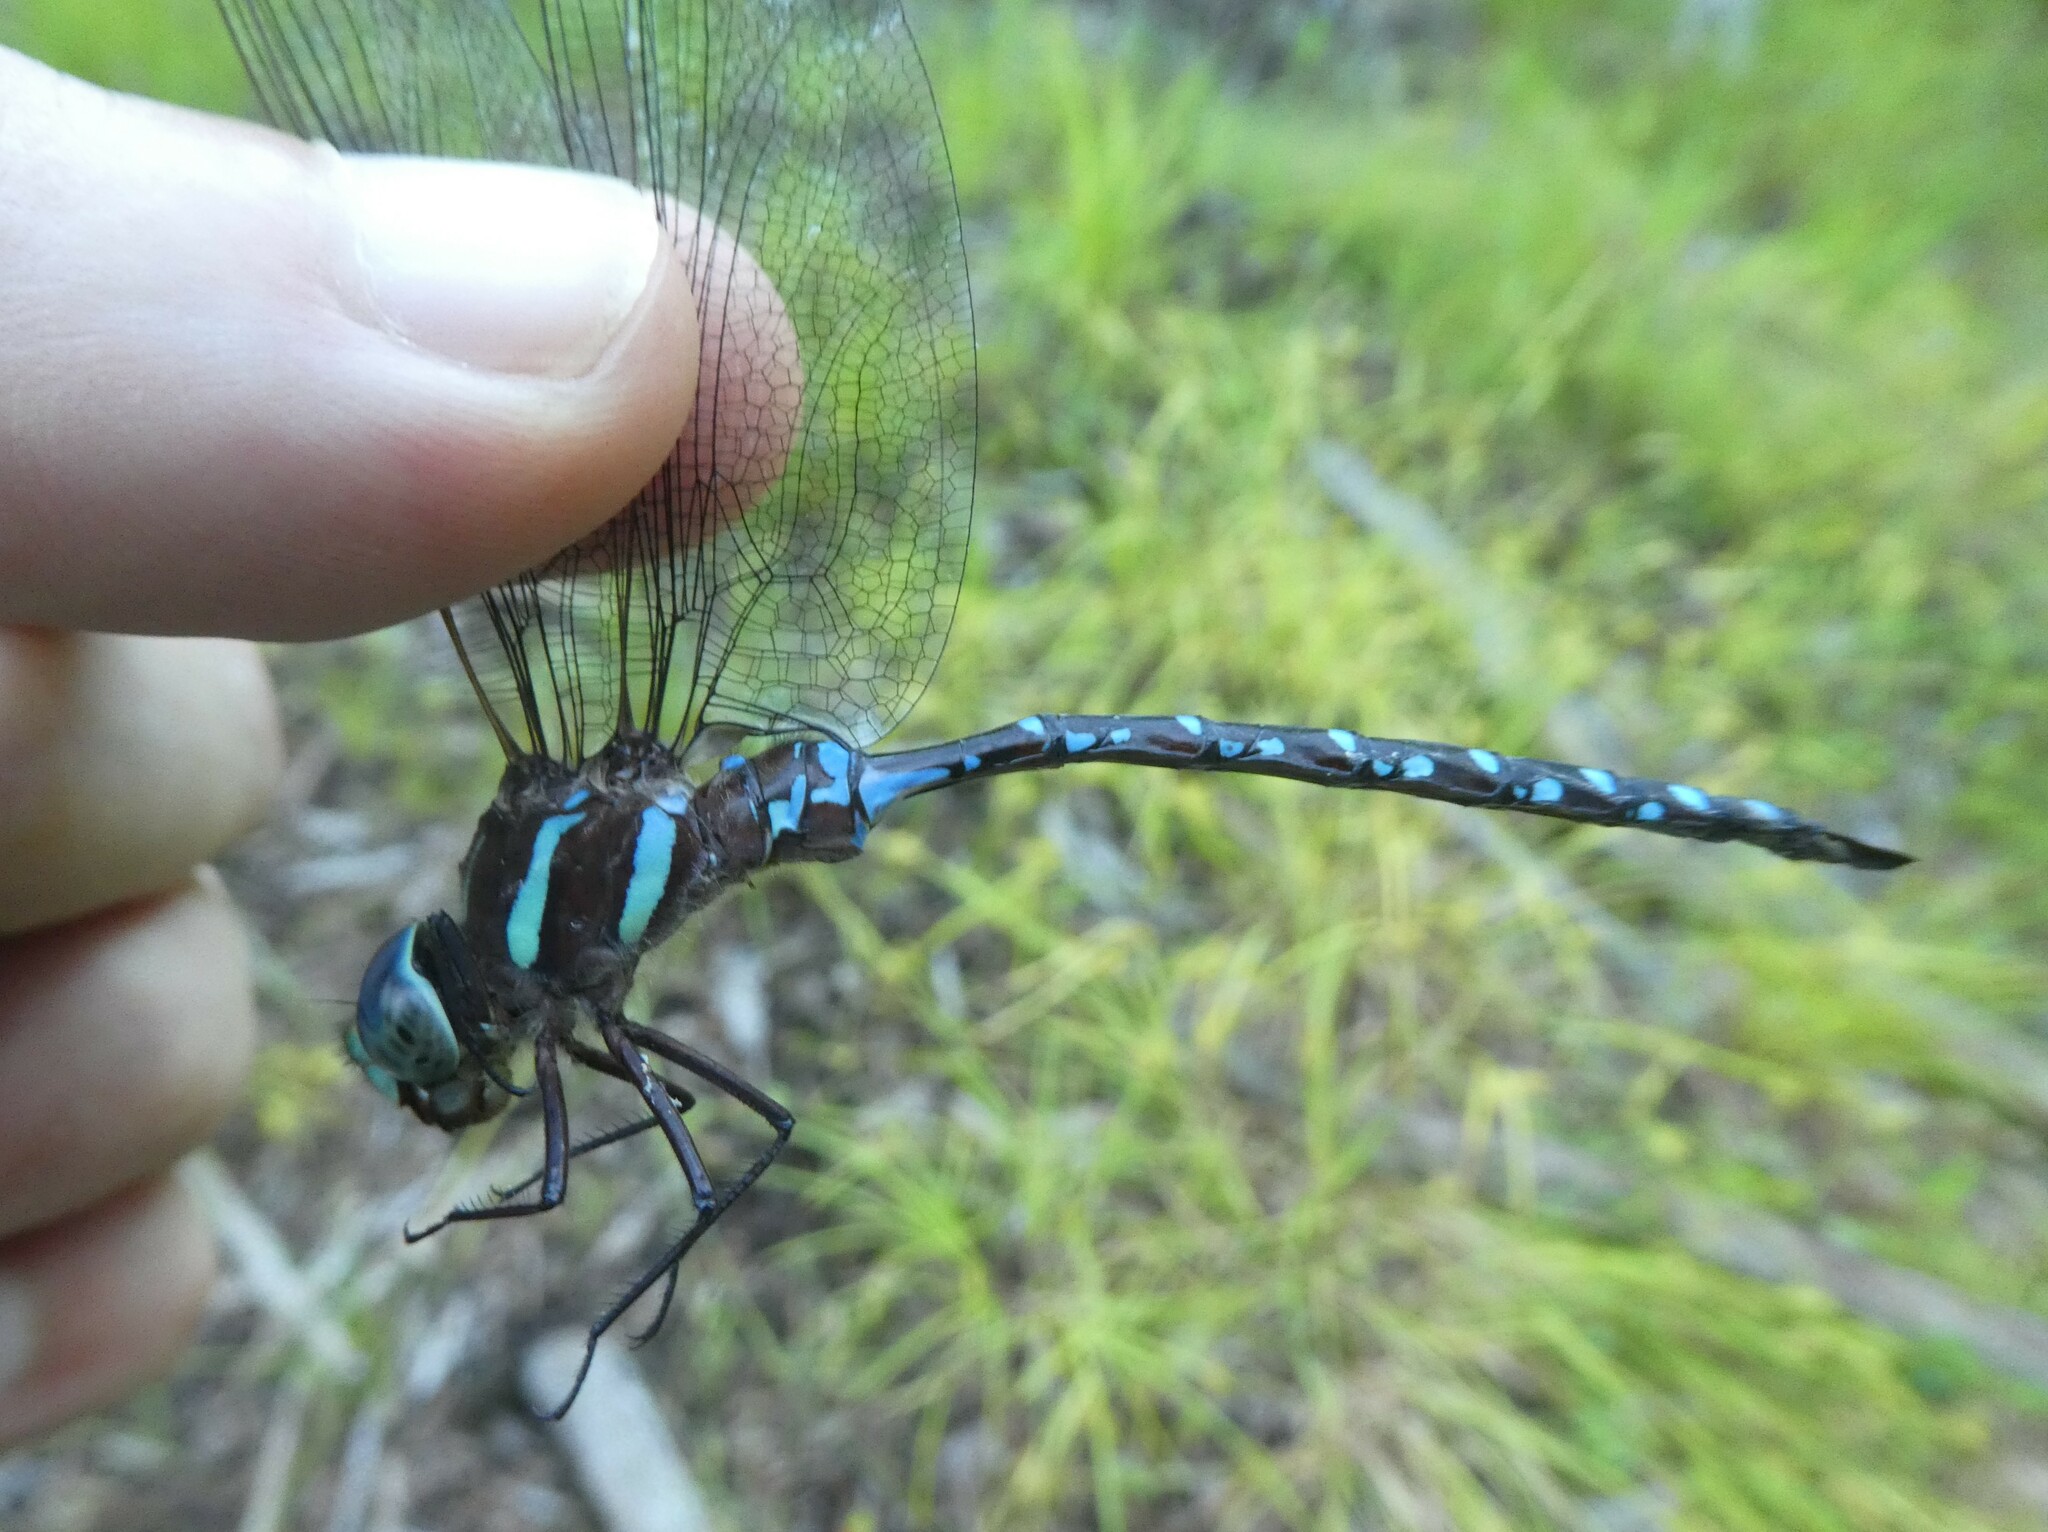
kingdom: Animalia
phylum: Arthropoda
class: Insecta
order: Odonata
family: Aeshnidae
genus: Aeshna
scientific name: Aeshna tuberculifera
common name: Aeschne à tubercules
